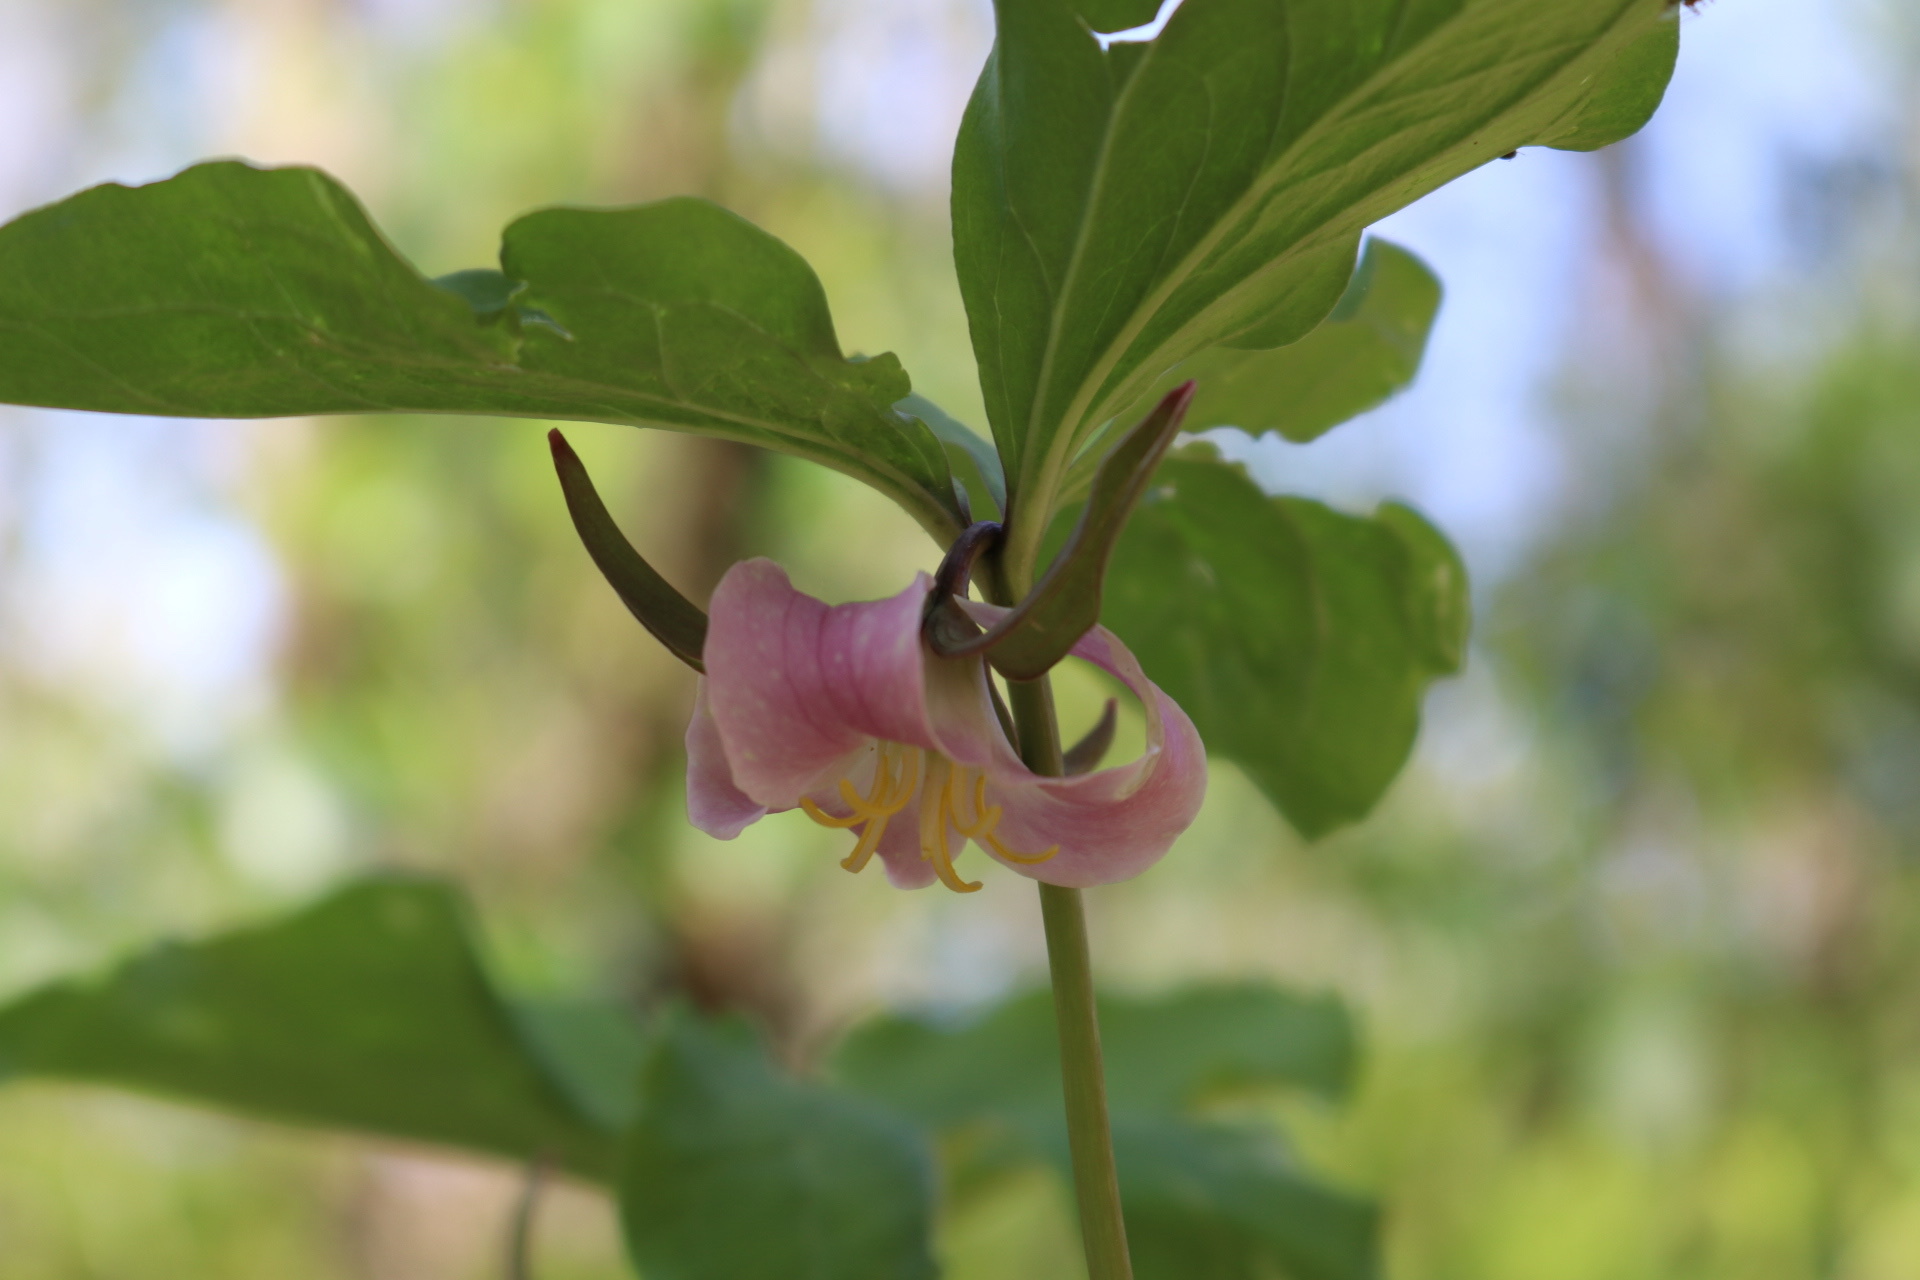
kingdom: Plantae
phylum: Tracheophyta
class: Liliopsida
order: Liliales
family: Melanthiaceae
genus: Trillium
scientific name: Trillium catesbaei
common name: Bashful trillium
